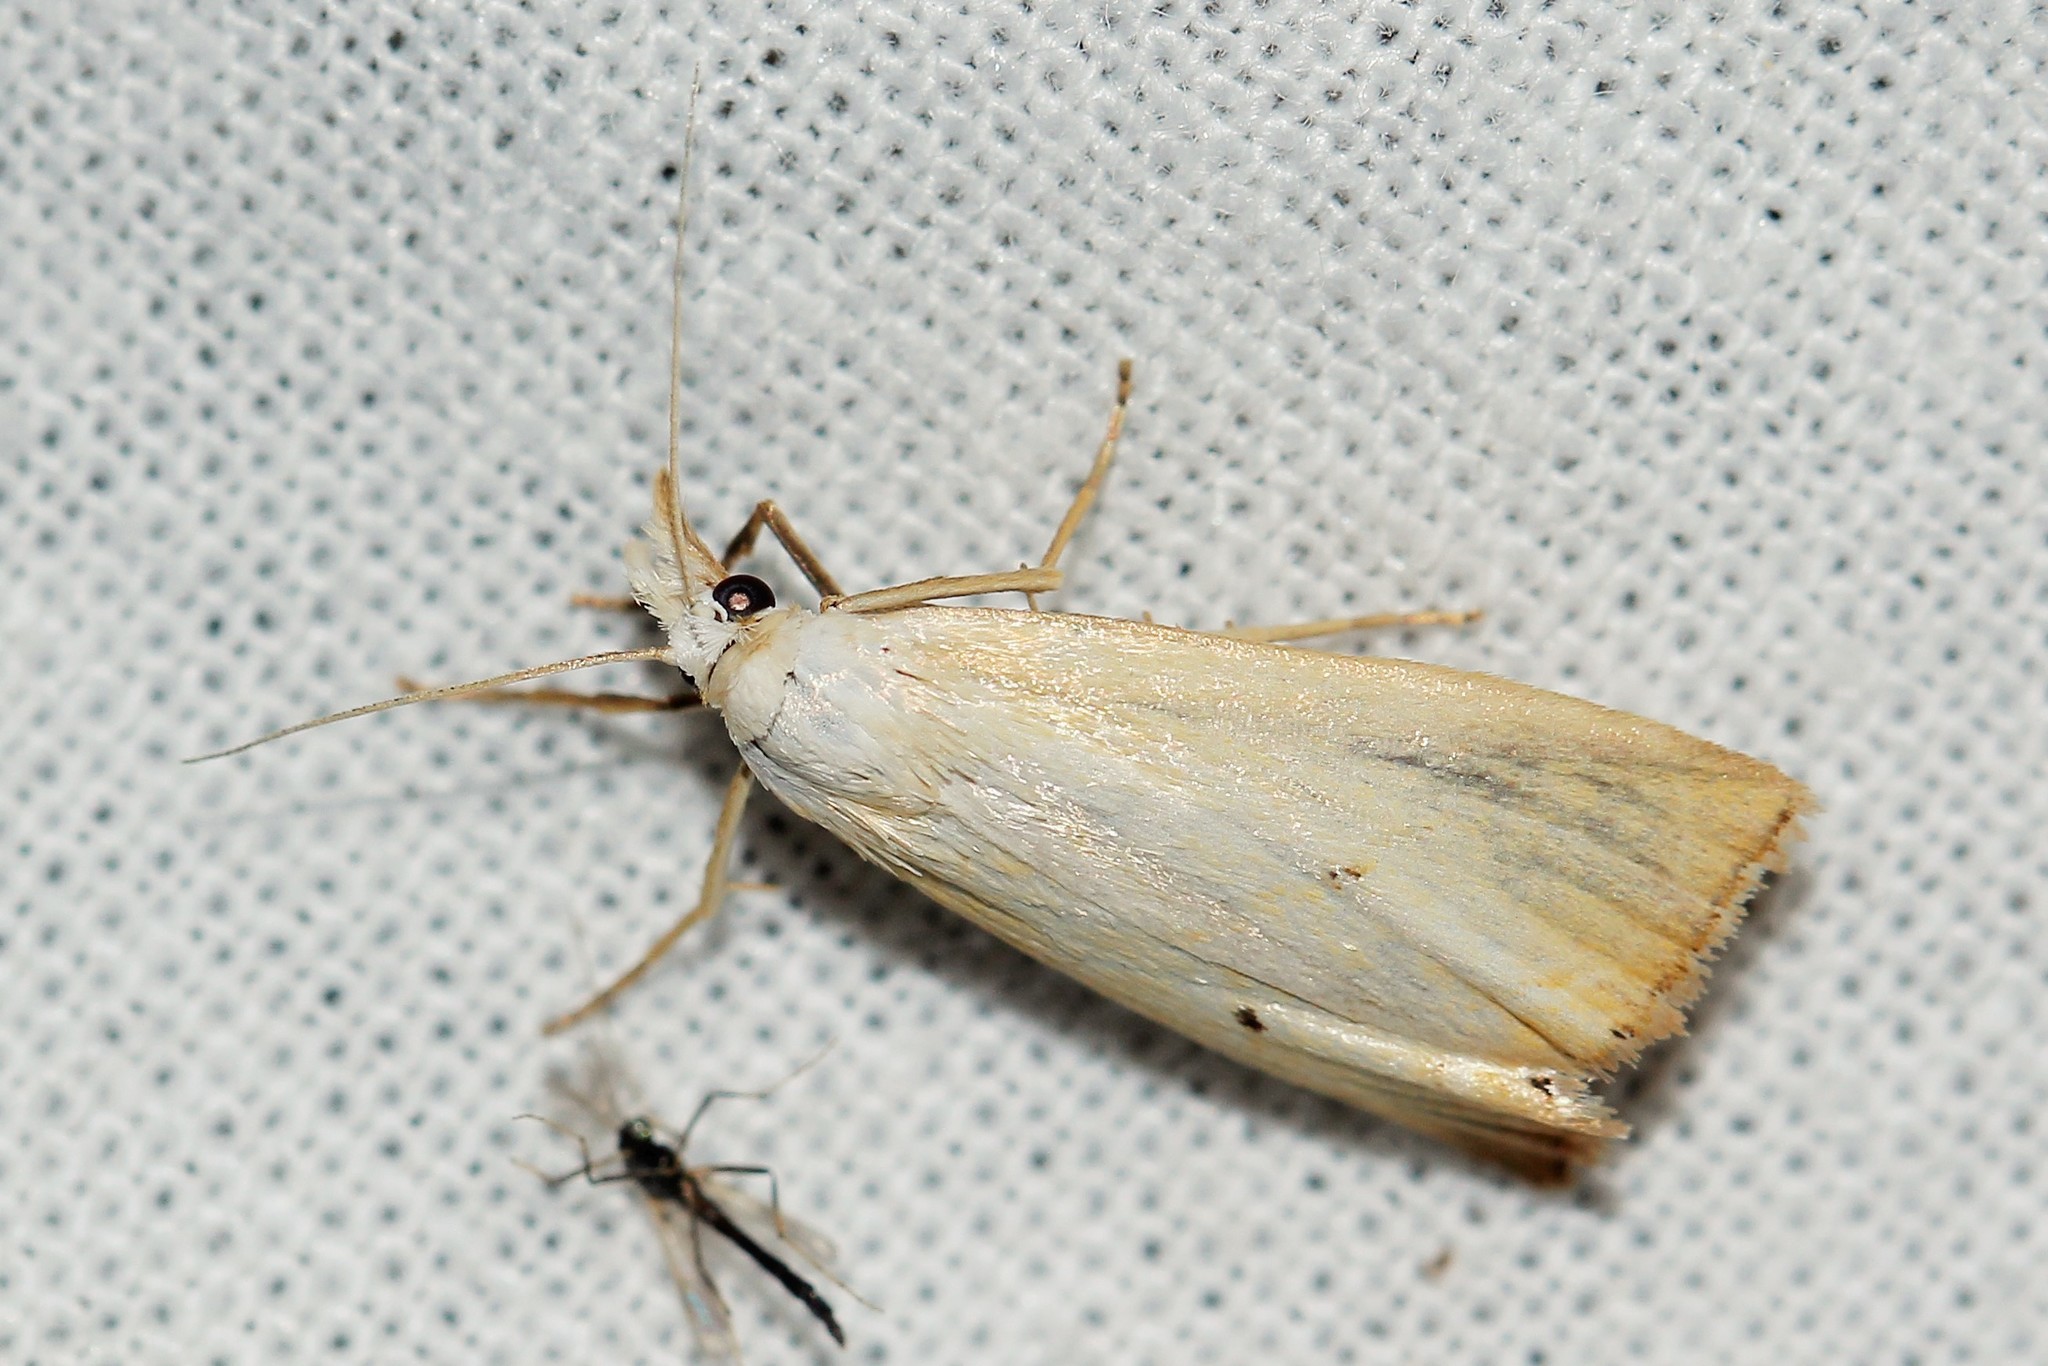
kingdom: Animalia
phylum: Arthropoda
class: Insecta
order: Lepidoptera
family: Crambidae
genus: Xanthocrambus
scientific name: Xanthocrambus saxonellus
